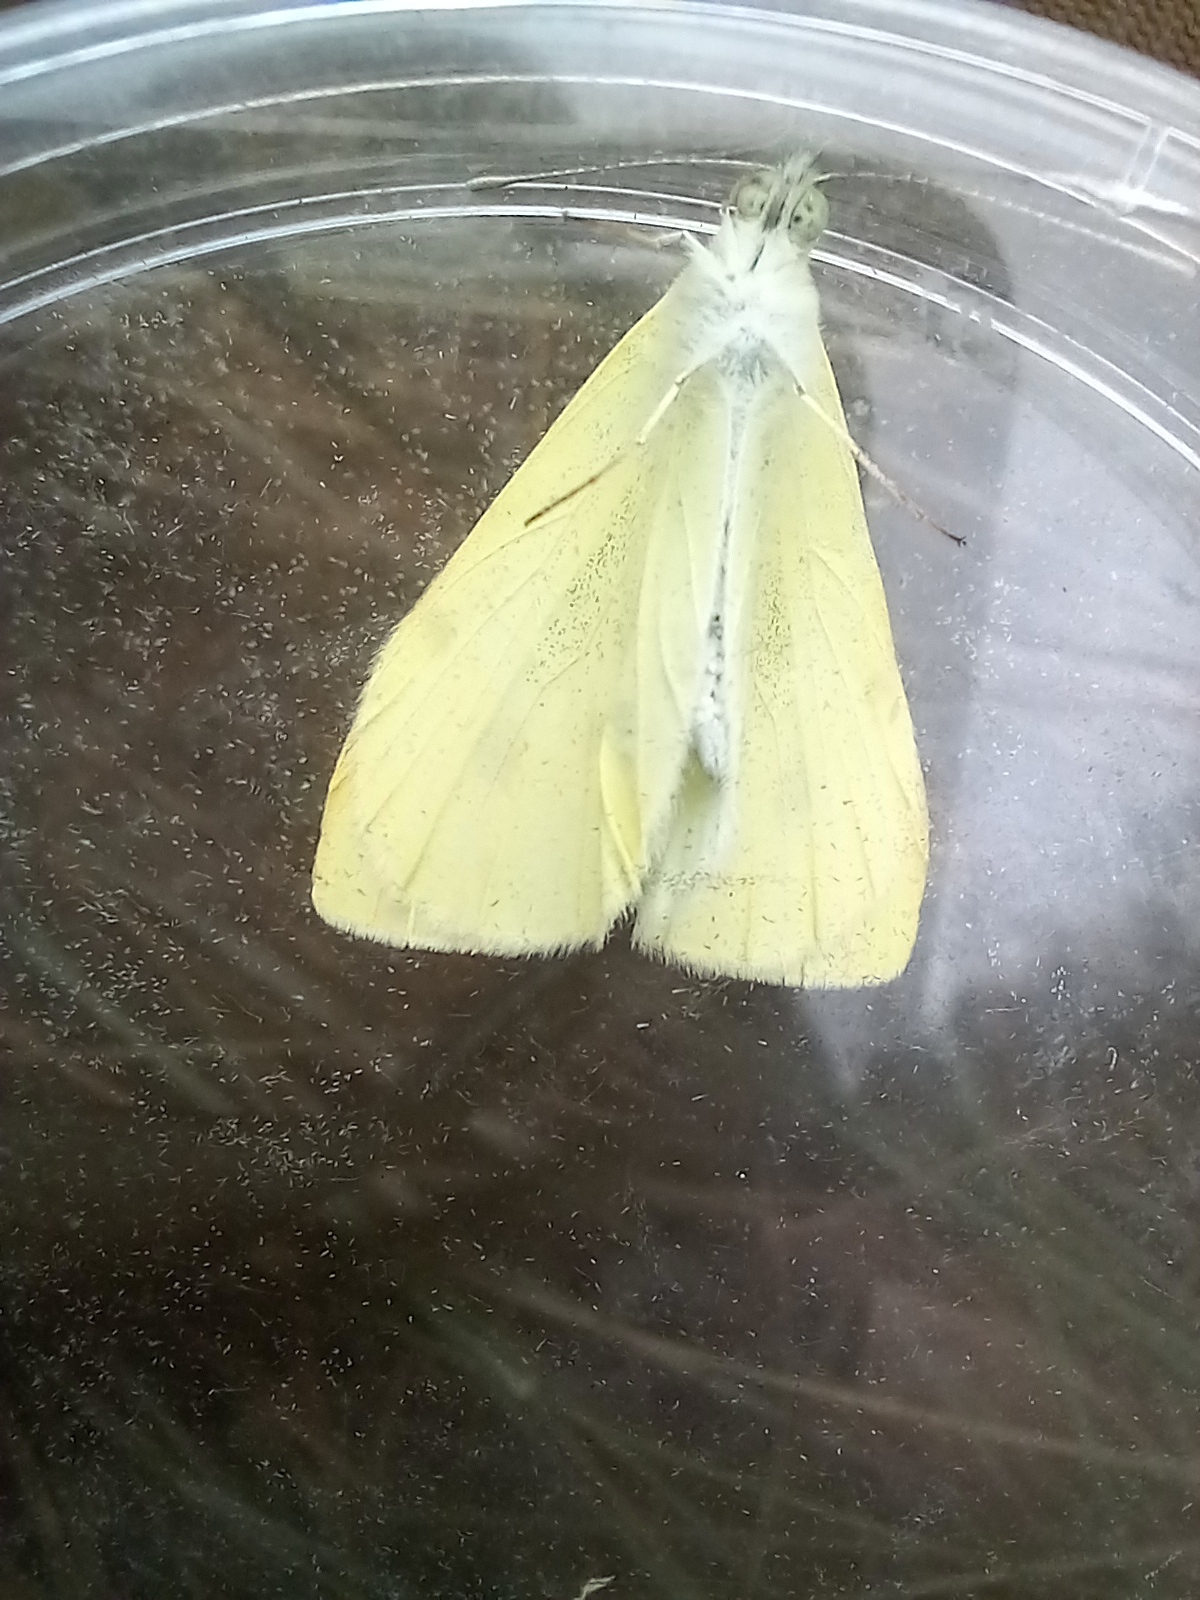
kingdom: Animalia
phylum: Arthropoda
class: Insecta
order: Lepidoptera
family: Pieridae
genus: Pieris
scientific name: Pieris rapae
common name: Small white
